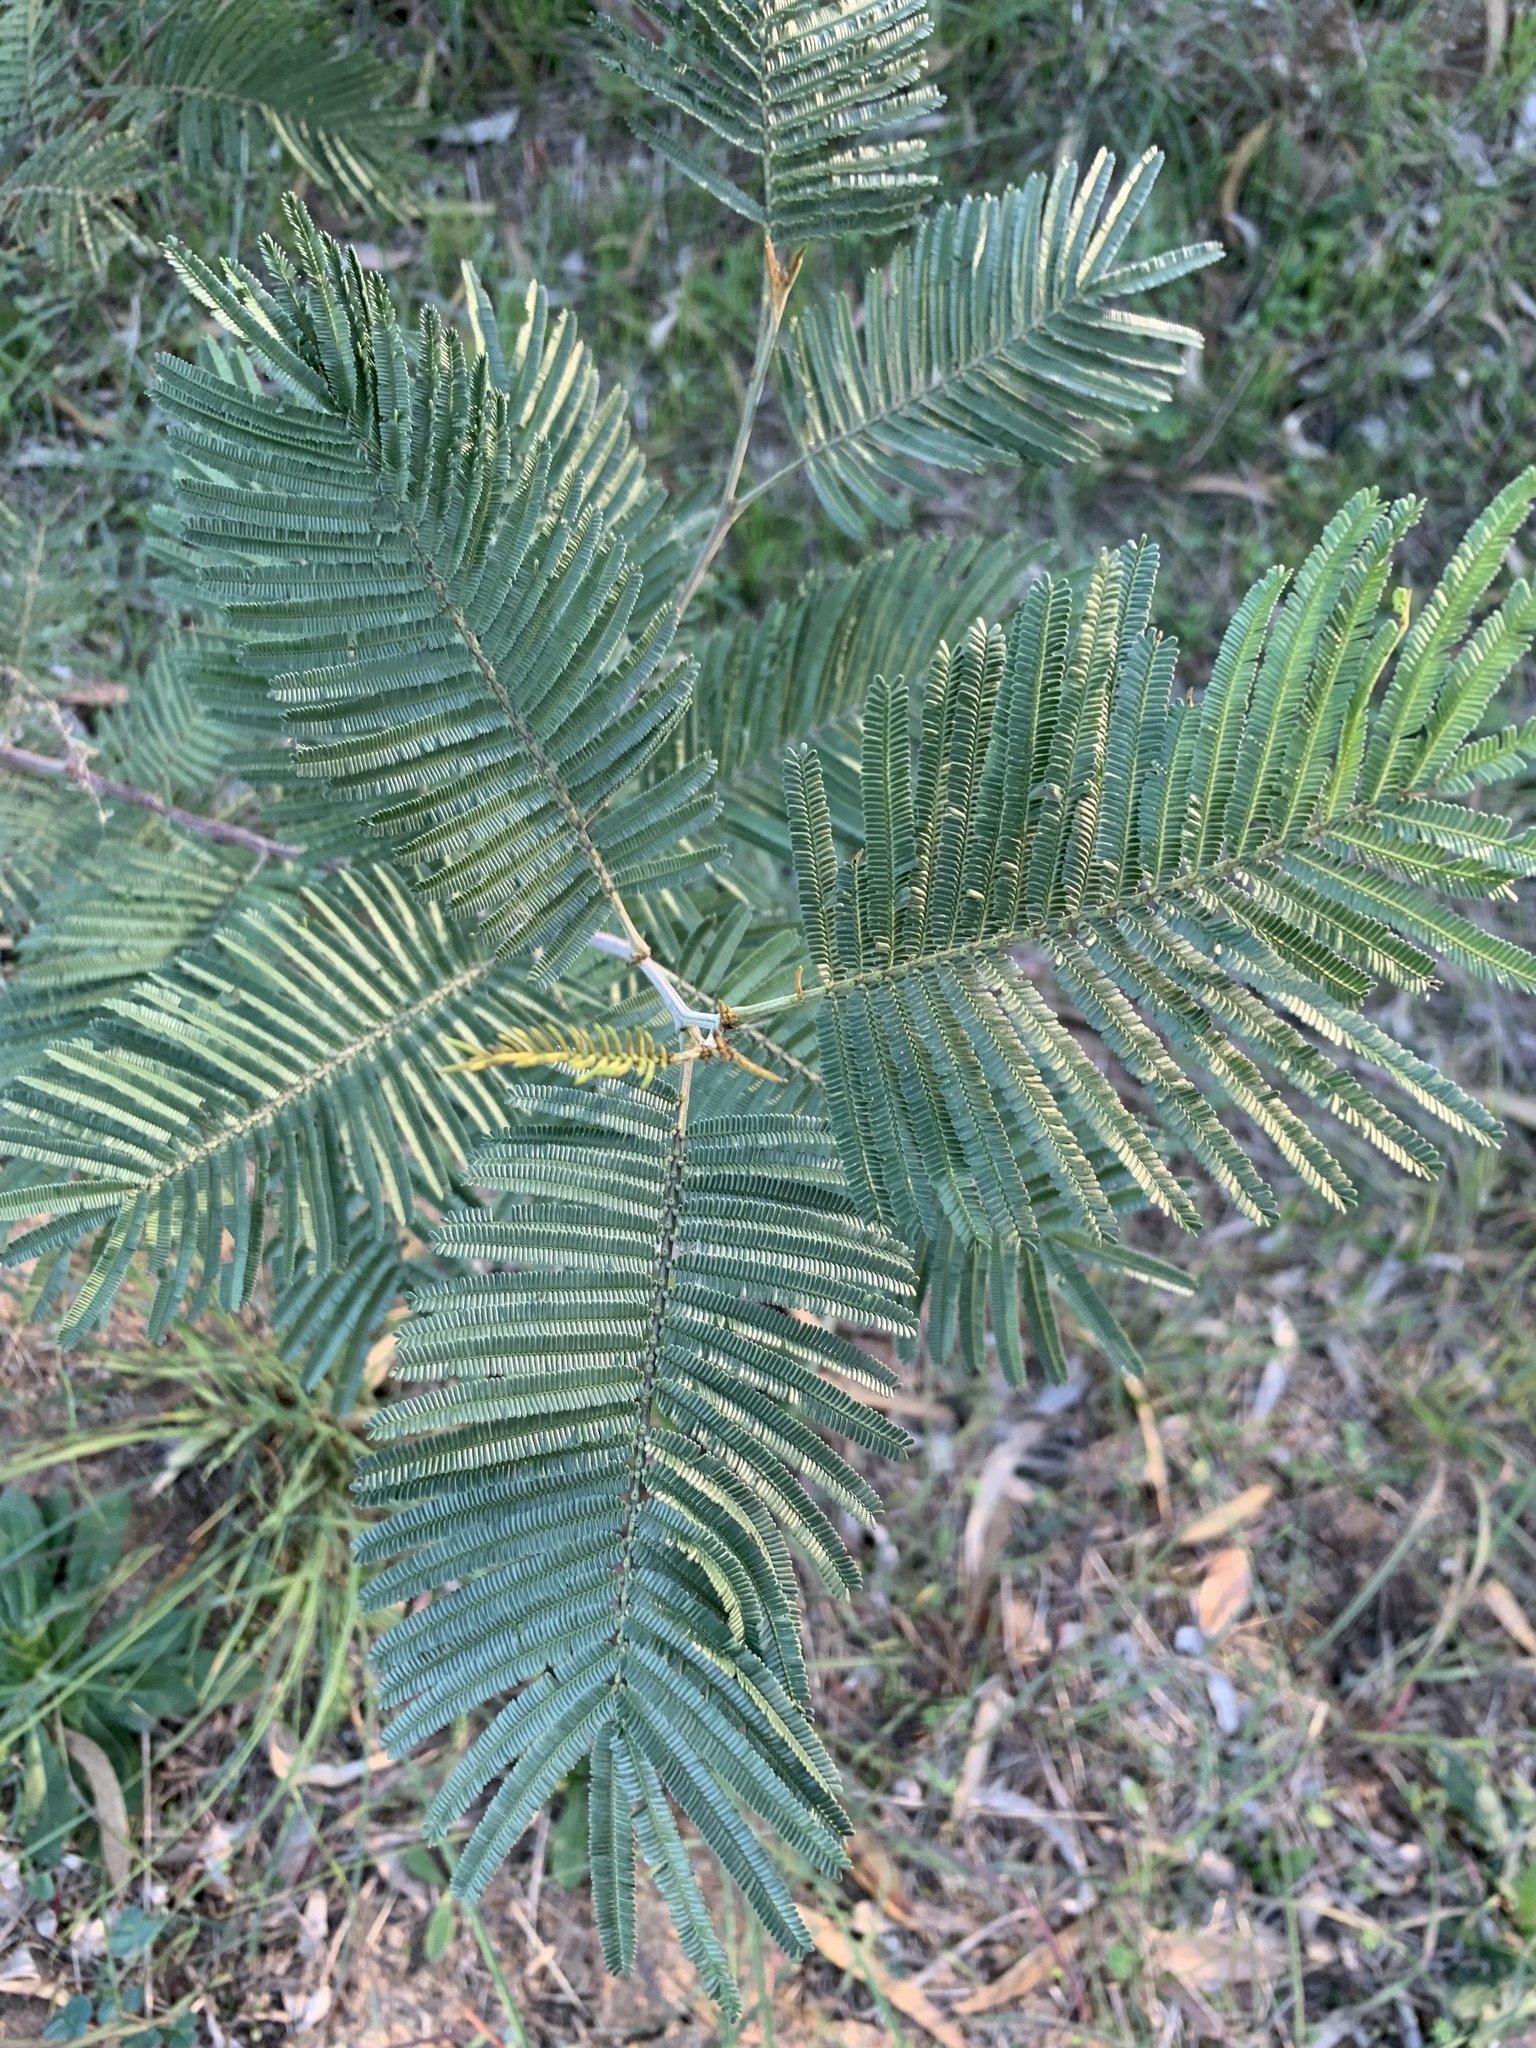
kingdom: Plantae
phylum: Tracheophyta
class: Magnoliopsida
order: Fabales
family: Fabaceae
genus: Acacia
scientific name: Acacia mearnsii
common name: Black wattle
